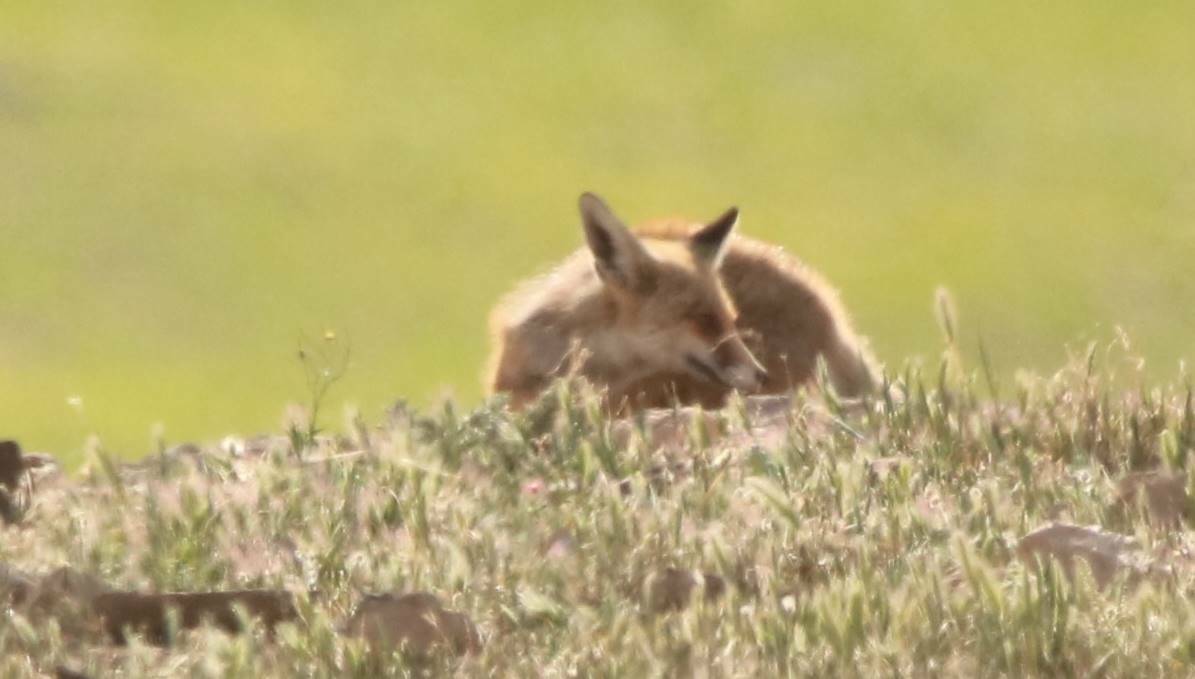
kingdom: Animalia
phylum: Chordata
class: Mammalia
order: Carnivora
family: Canidae
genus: Vulpes
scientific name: Vulpes vulpes
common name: Red fox
